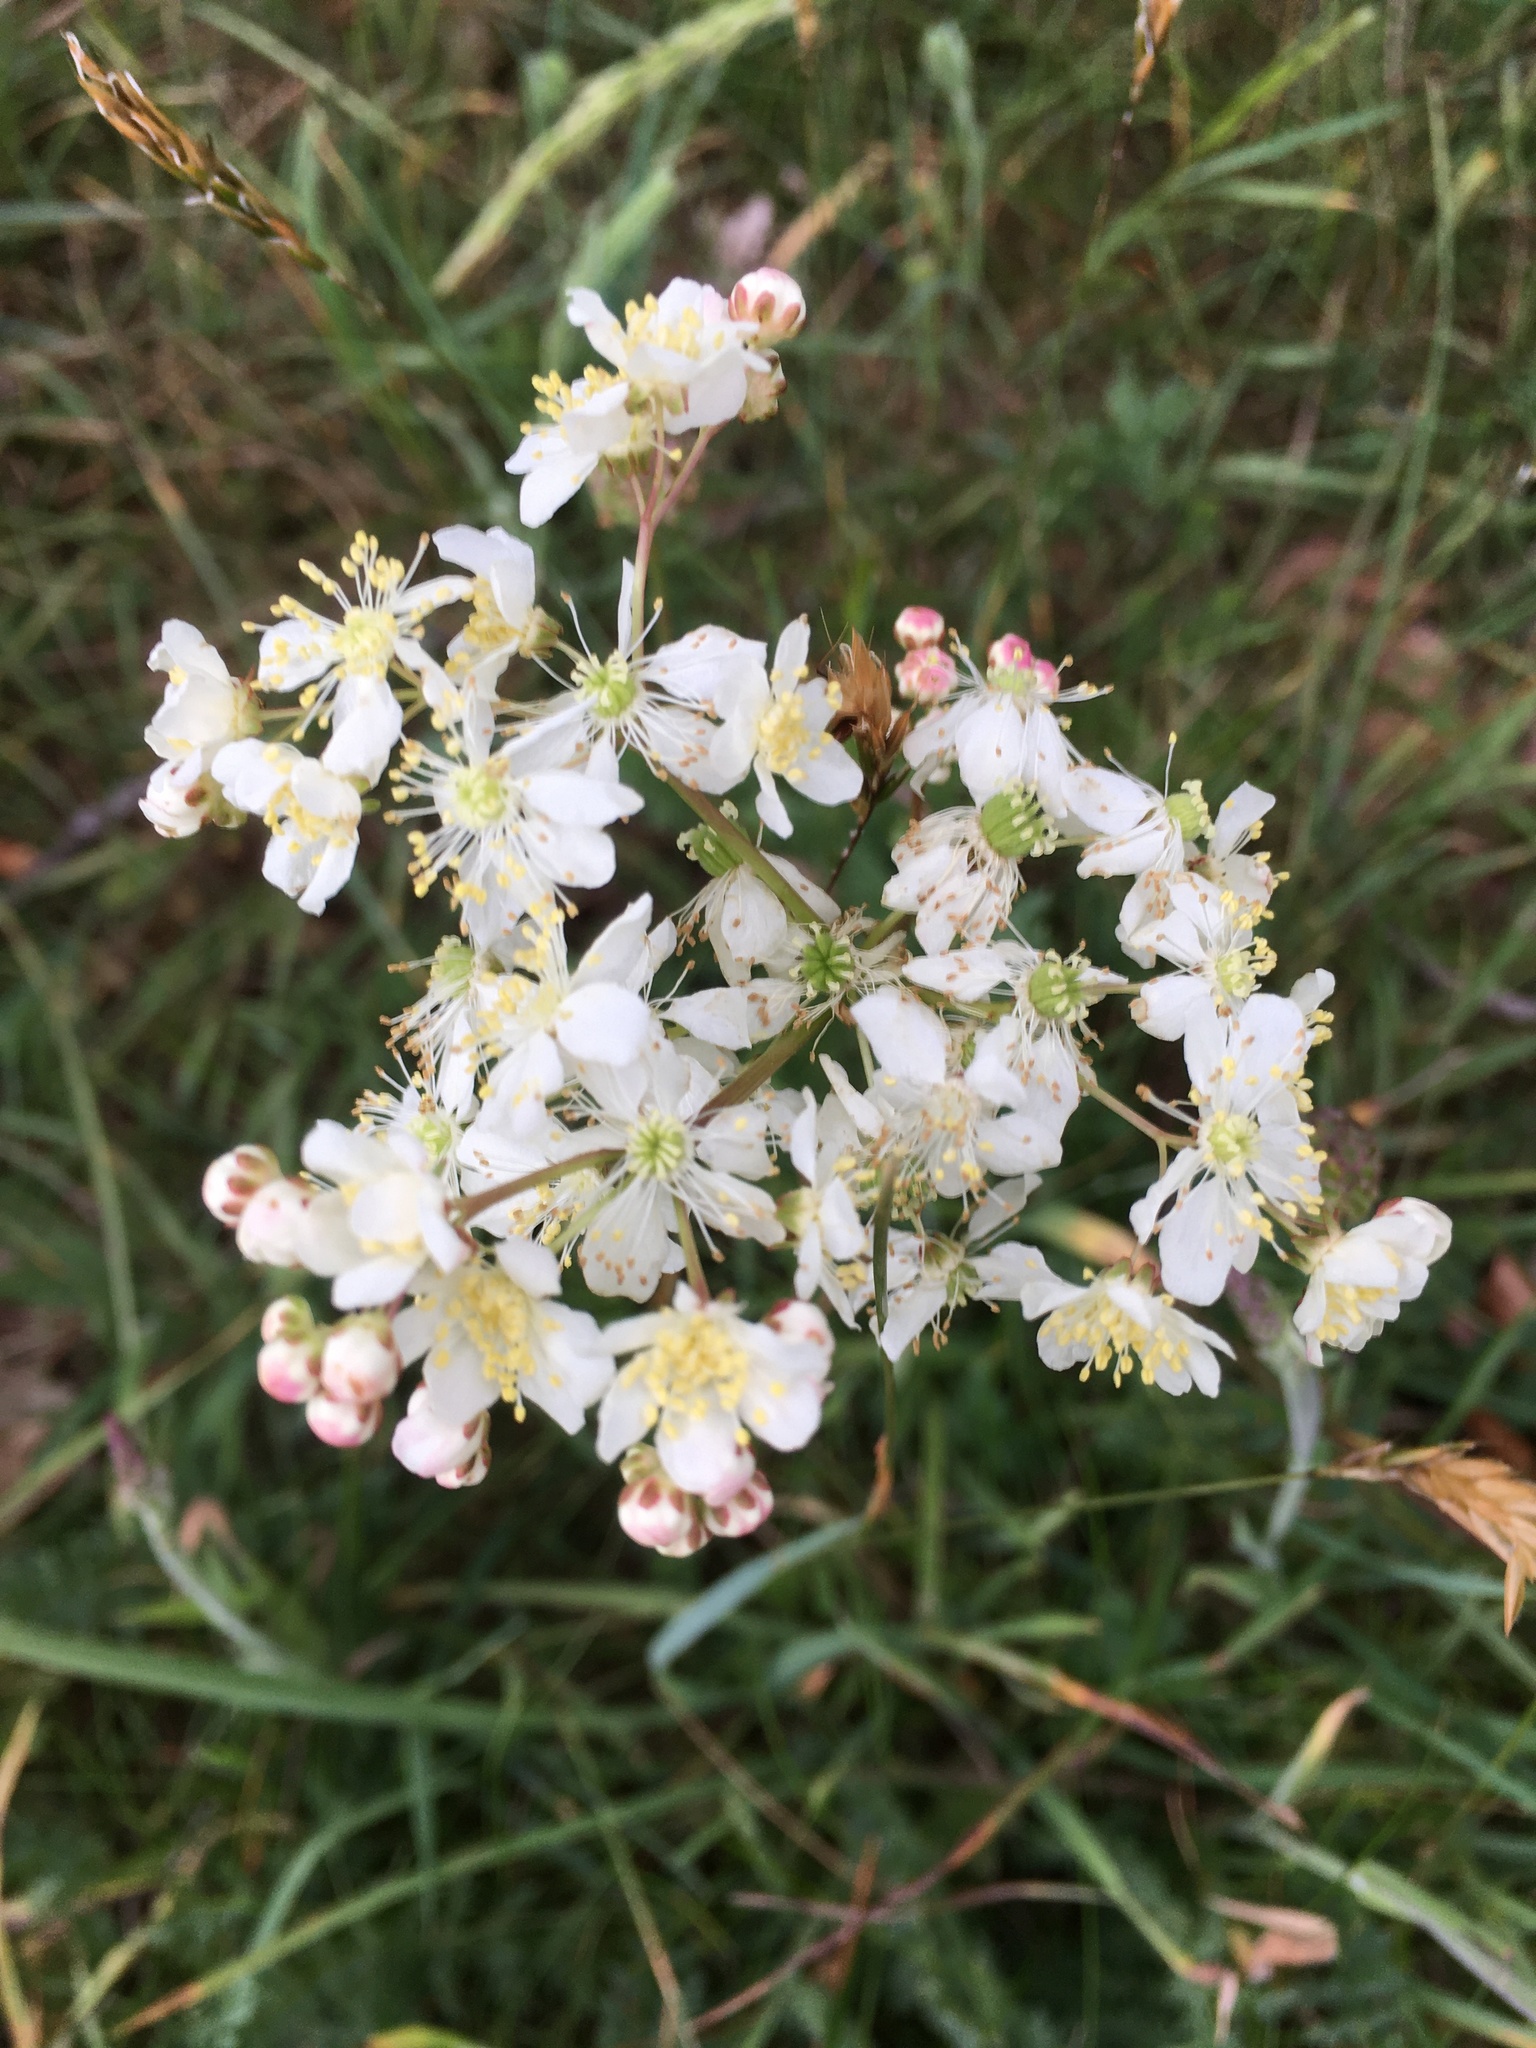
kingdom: Plantae
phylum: Tracheophyta
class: Magnoliopsida
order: Rosales
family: Rosaceae
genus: Filipendula
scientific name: Filipendula vulgaris
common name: Dropwort
